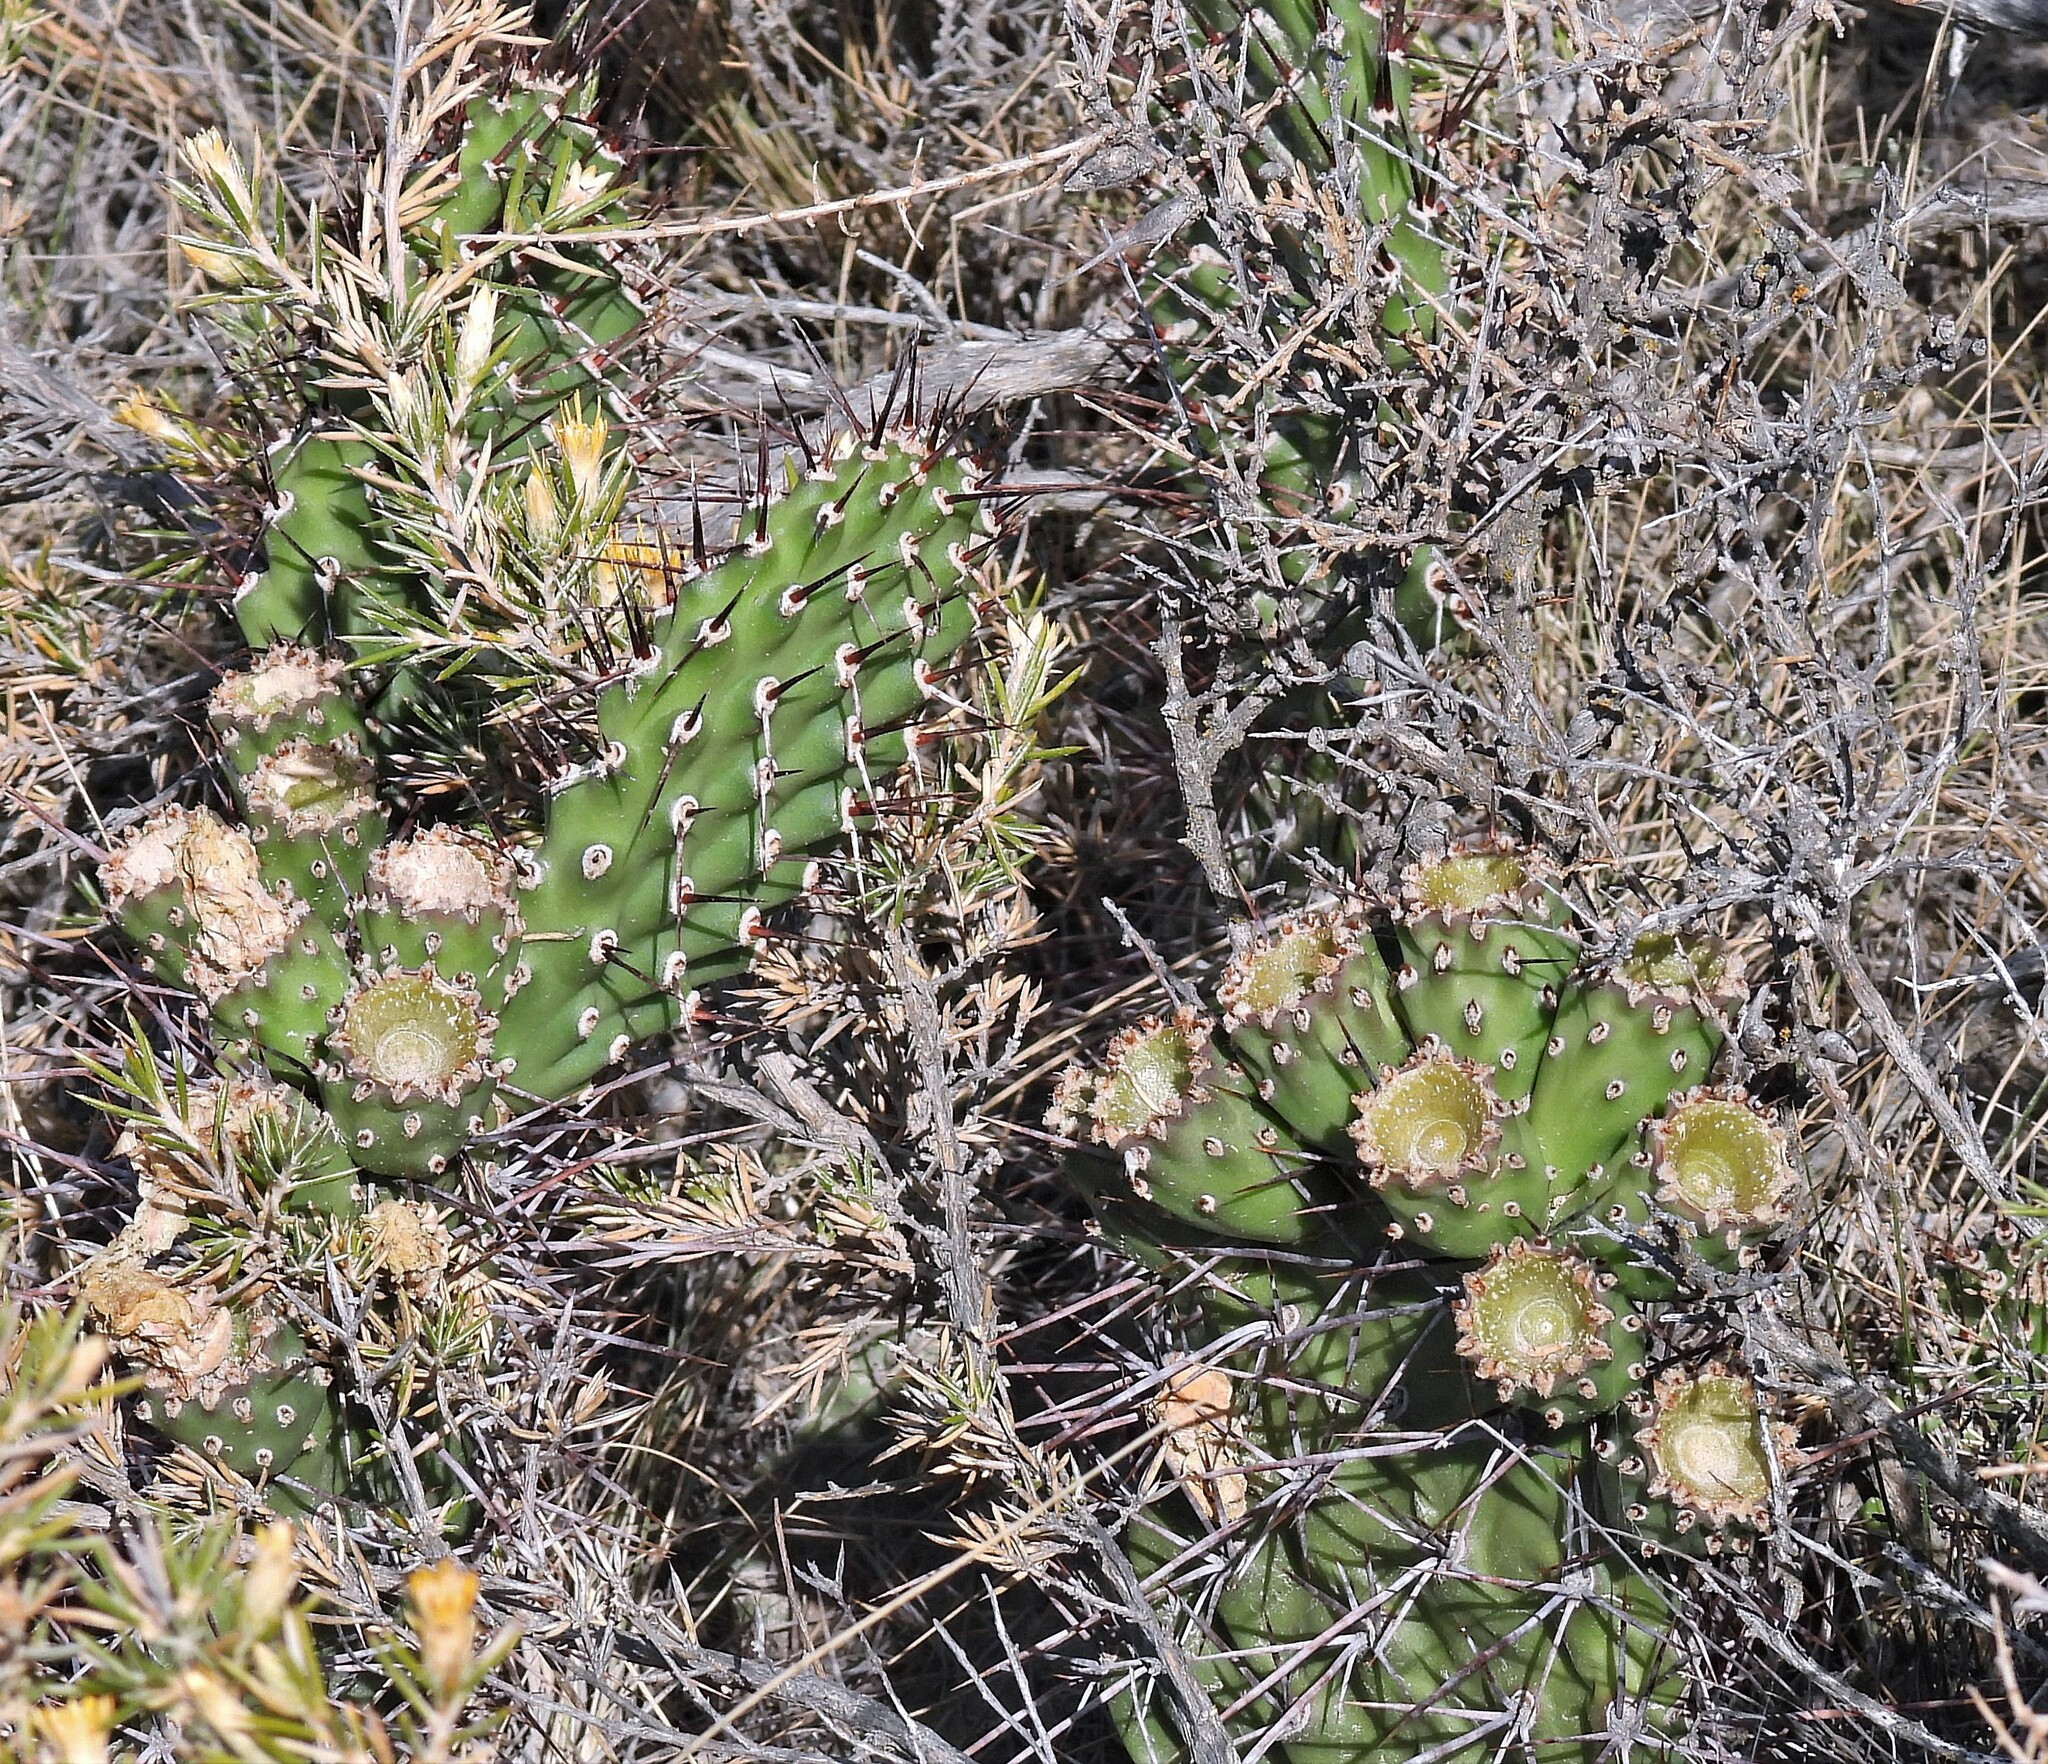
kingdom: Plantae
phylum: Tracheophyta
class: Magnoliopsida
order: Caryophyllales
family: Cactaceae
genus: Opuntia
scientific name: Opuntia sulphurea
